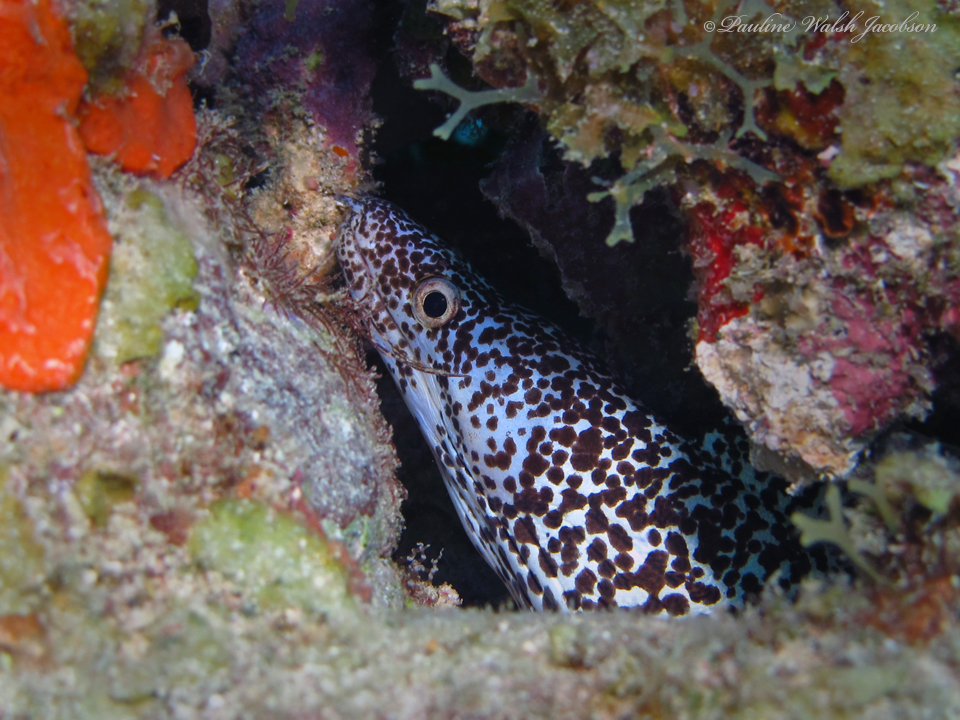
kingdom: Animalia
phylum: Chordata
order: Anguilliformes
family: Muraenidae
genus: Gymnothorax
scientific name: Gymnothorax moringa
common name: Spotted moray
